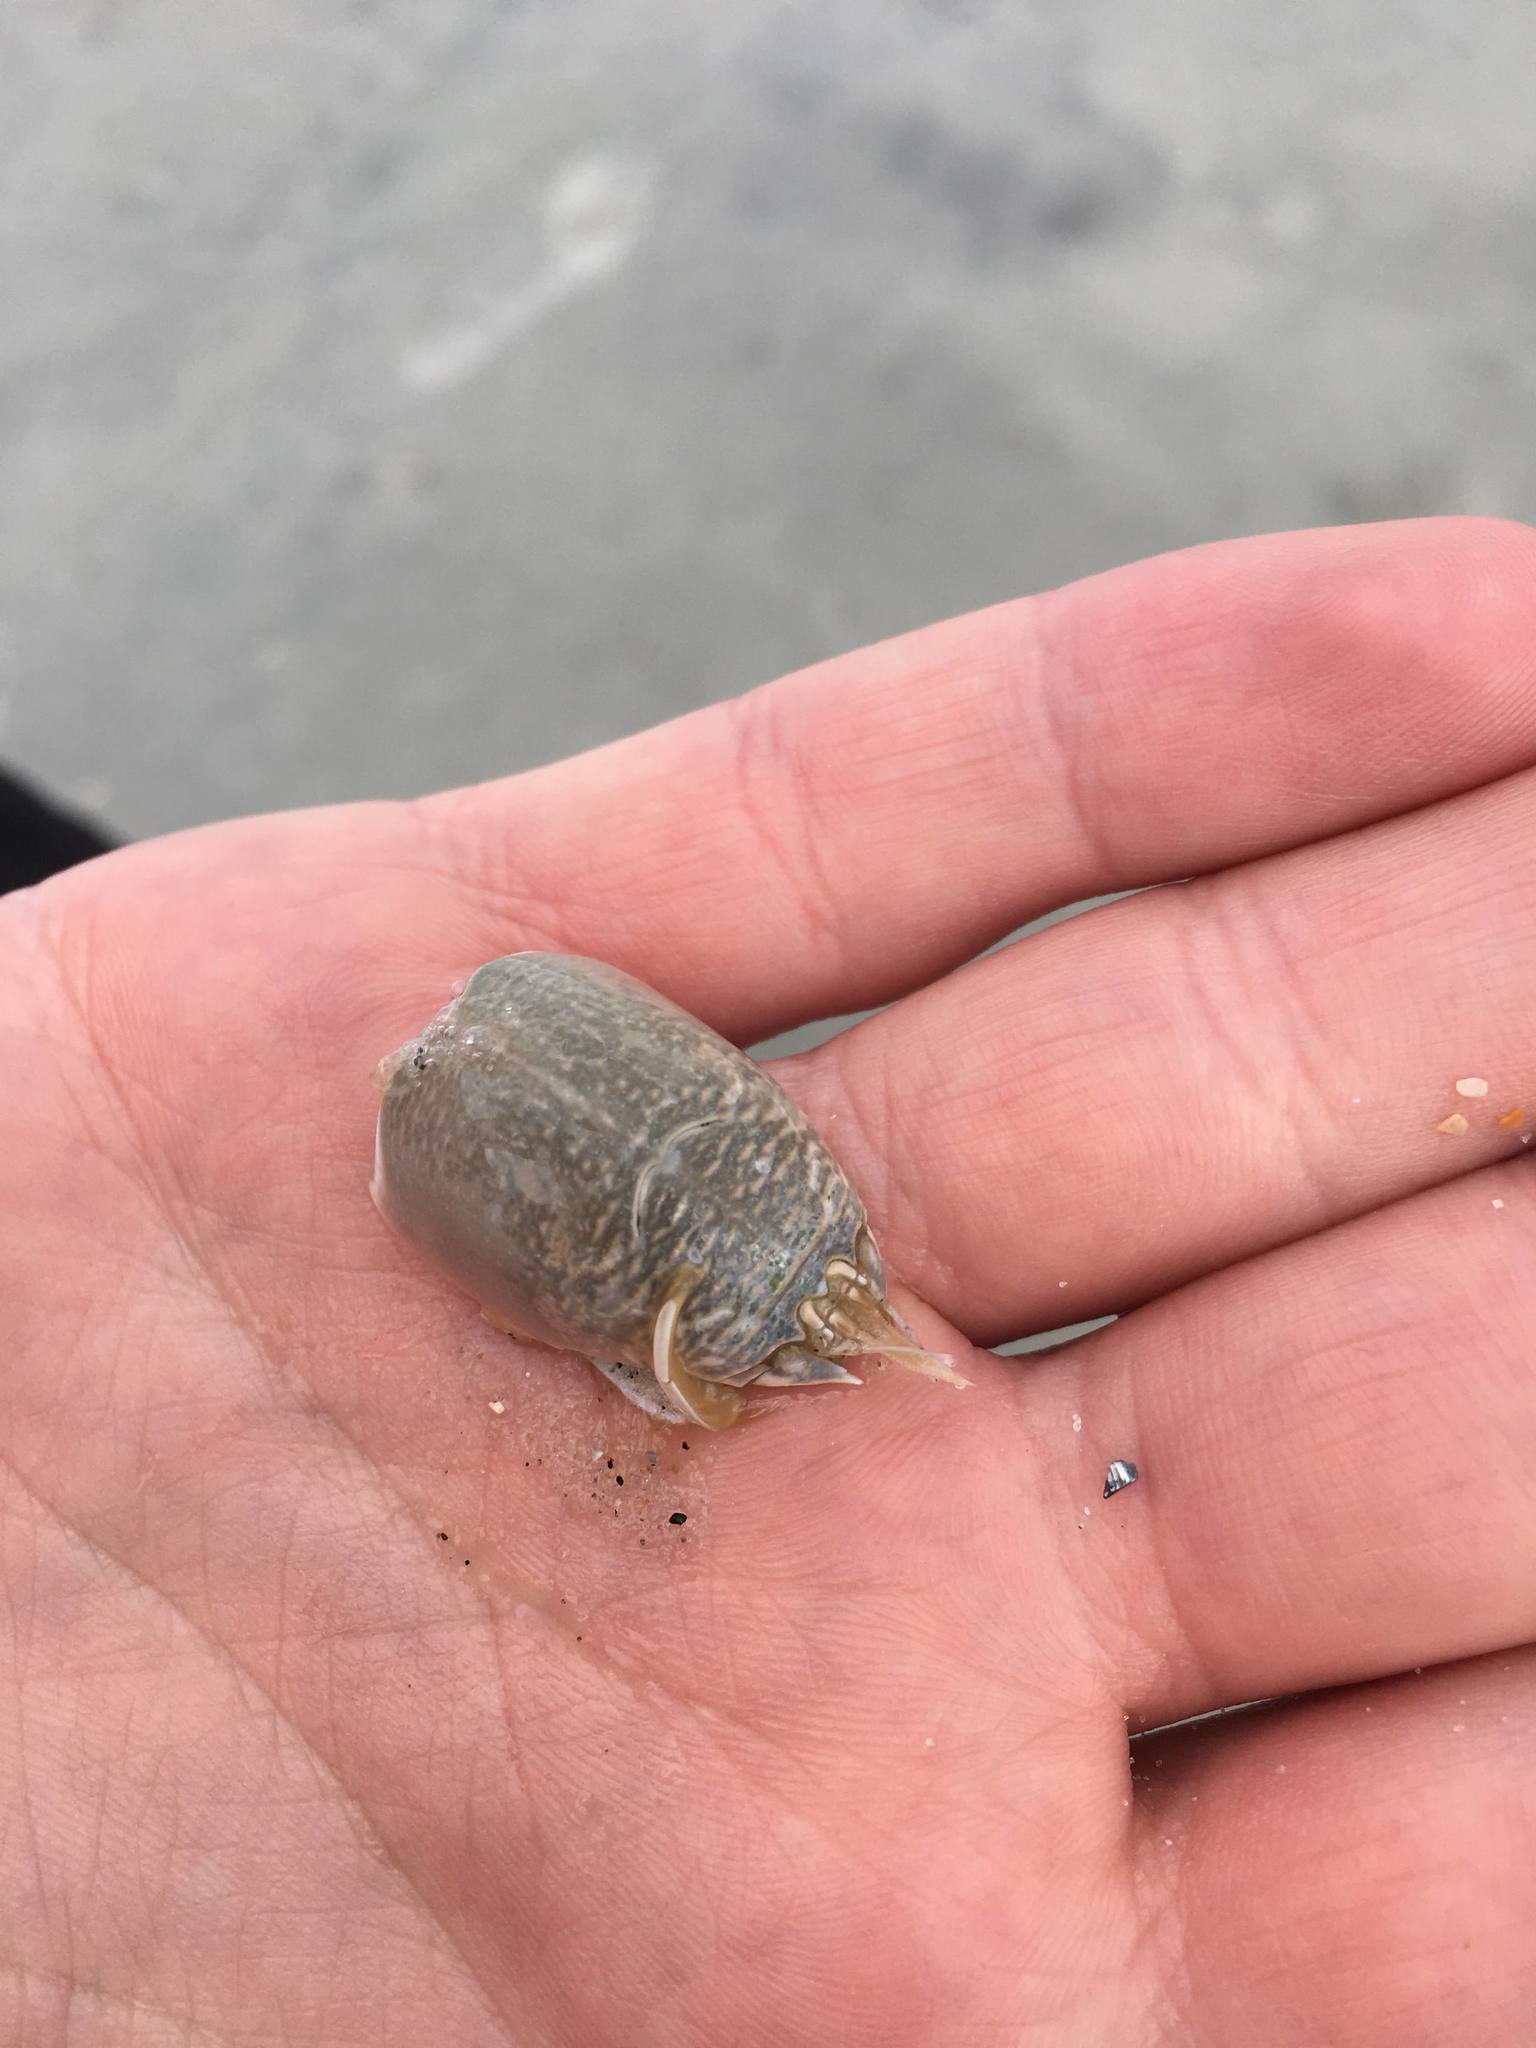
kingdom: Animalia
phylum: Arthropoda
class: Malacostraca
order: Decapoda
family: Hippidae
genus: Emerita
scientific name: Emerita talpoida
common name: Atlantic sand crab
